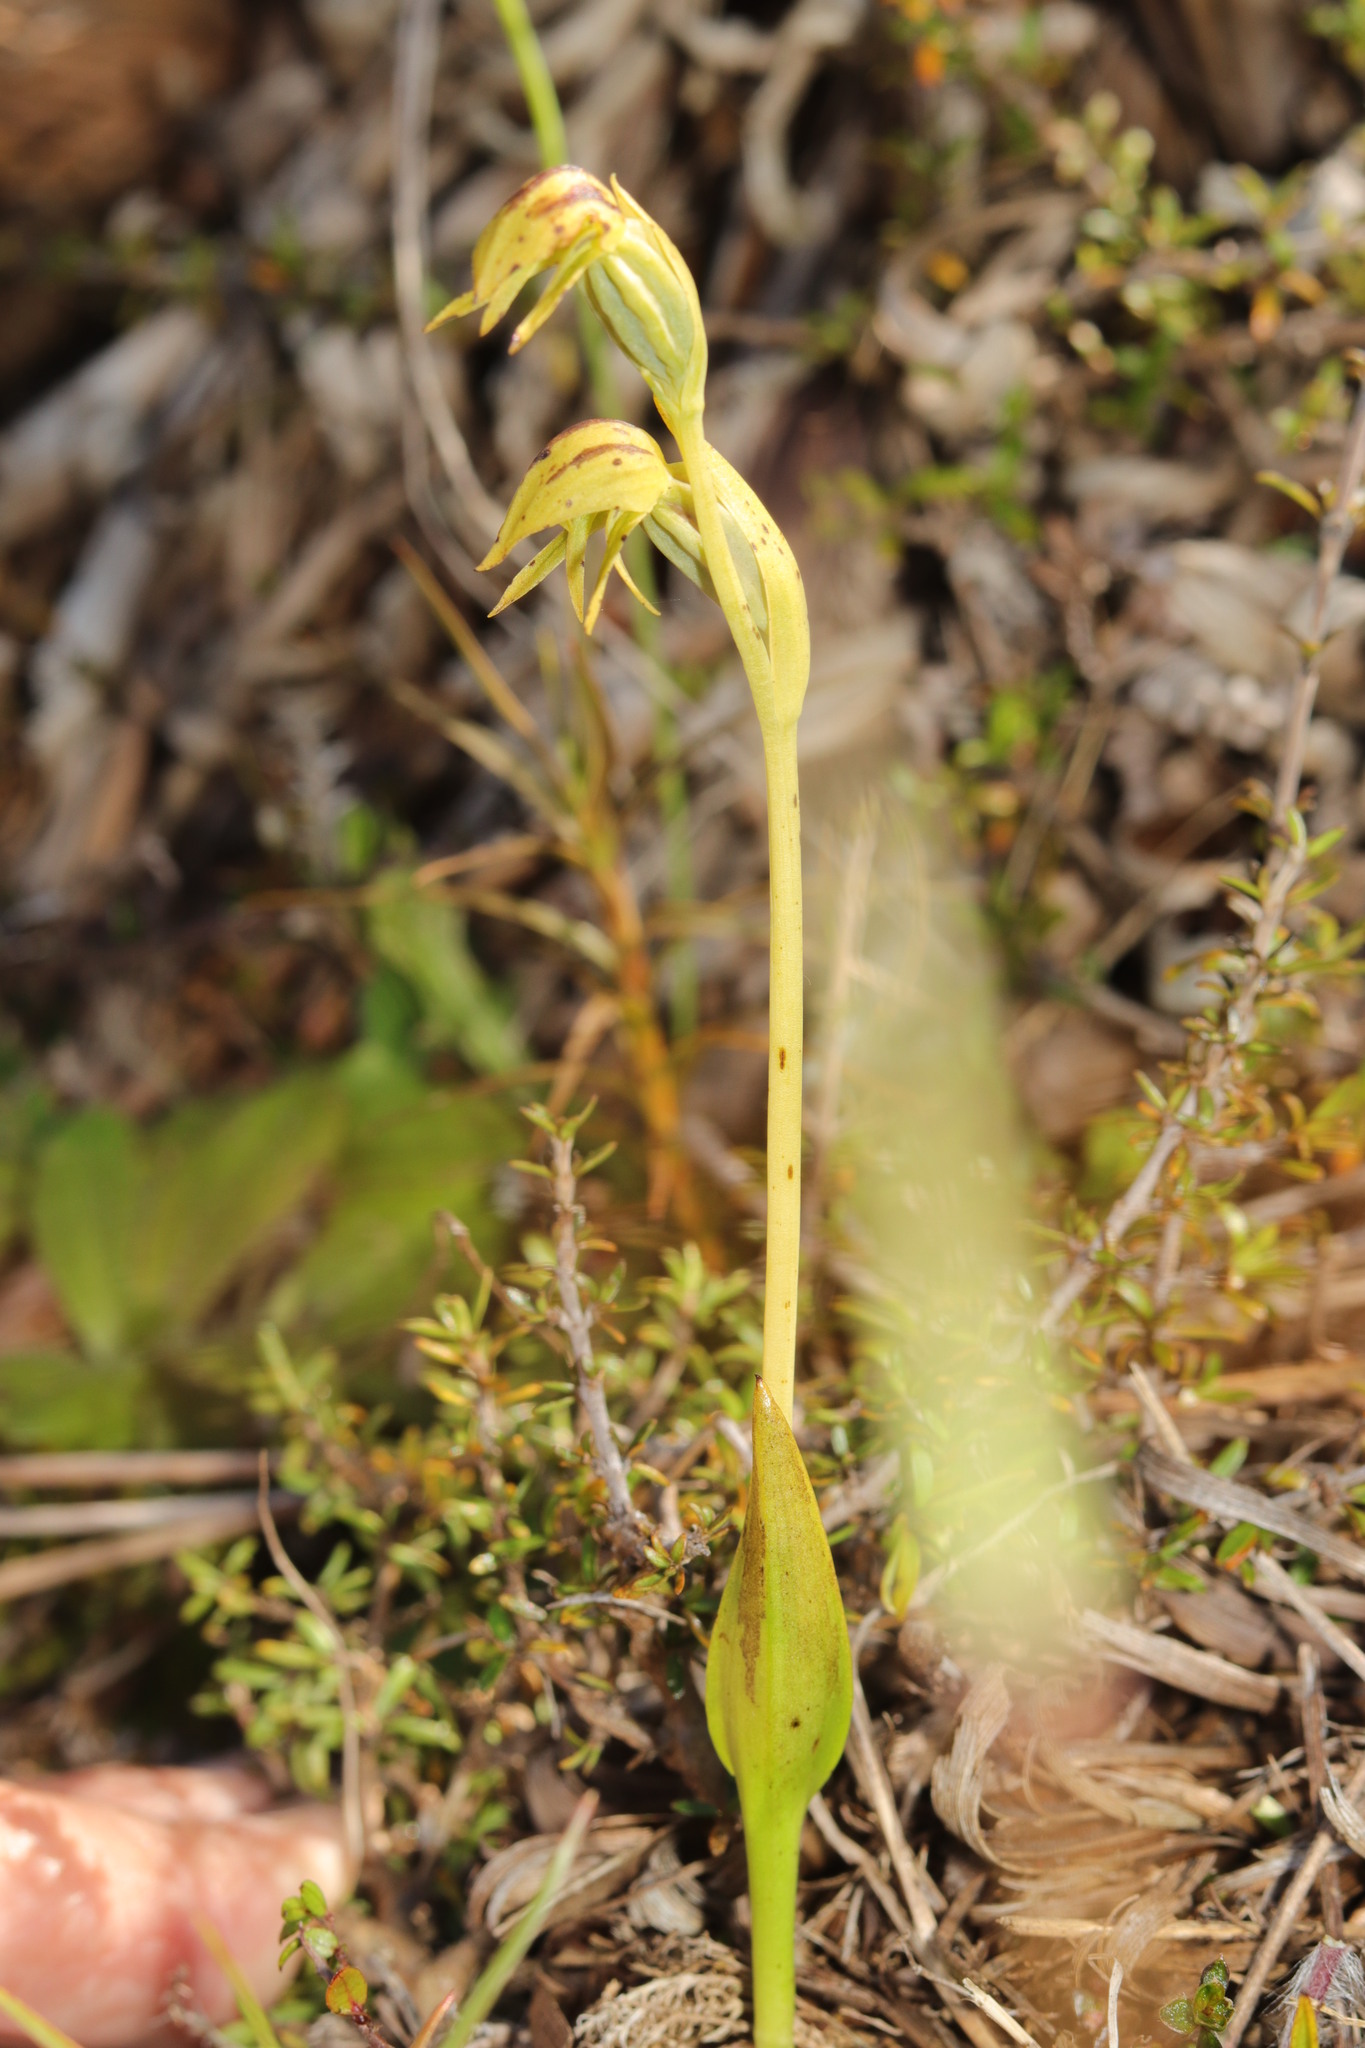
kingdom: Plantae
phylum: Tracheophyta
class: Liliopsida
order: Asparagales
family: Orchidaceae
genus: Waireia
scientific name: Waireia stenopetala
